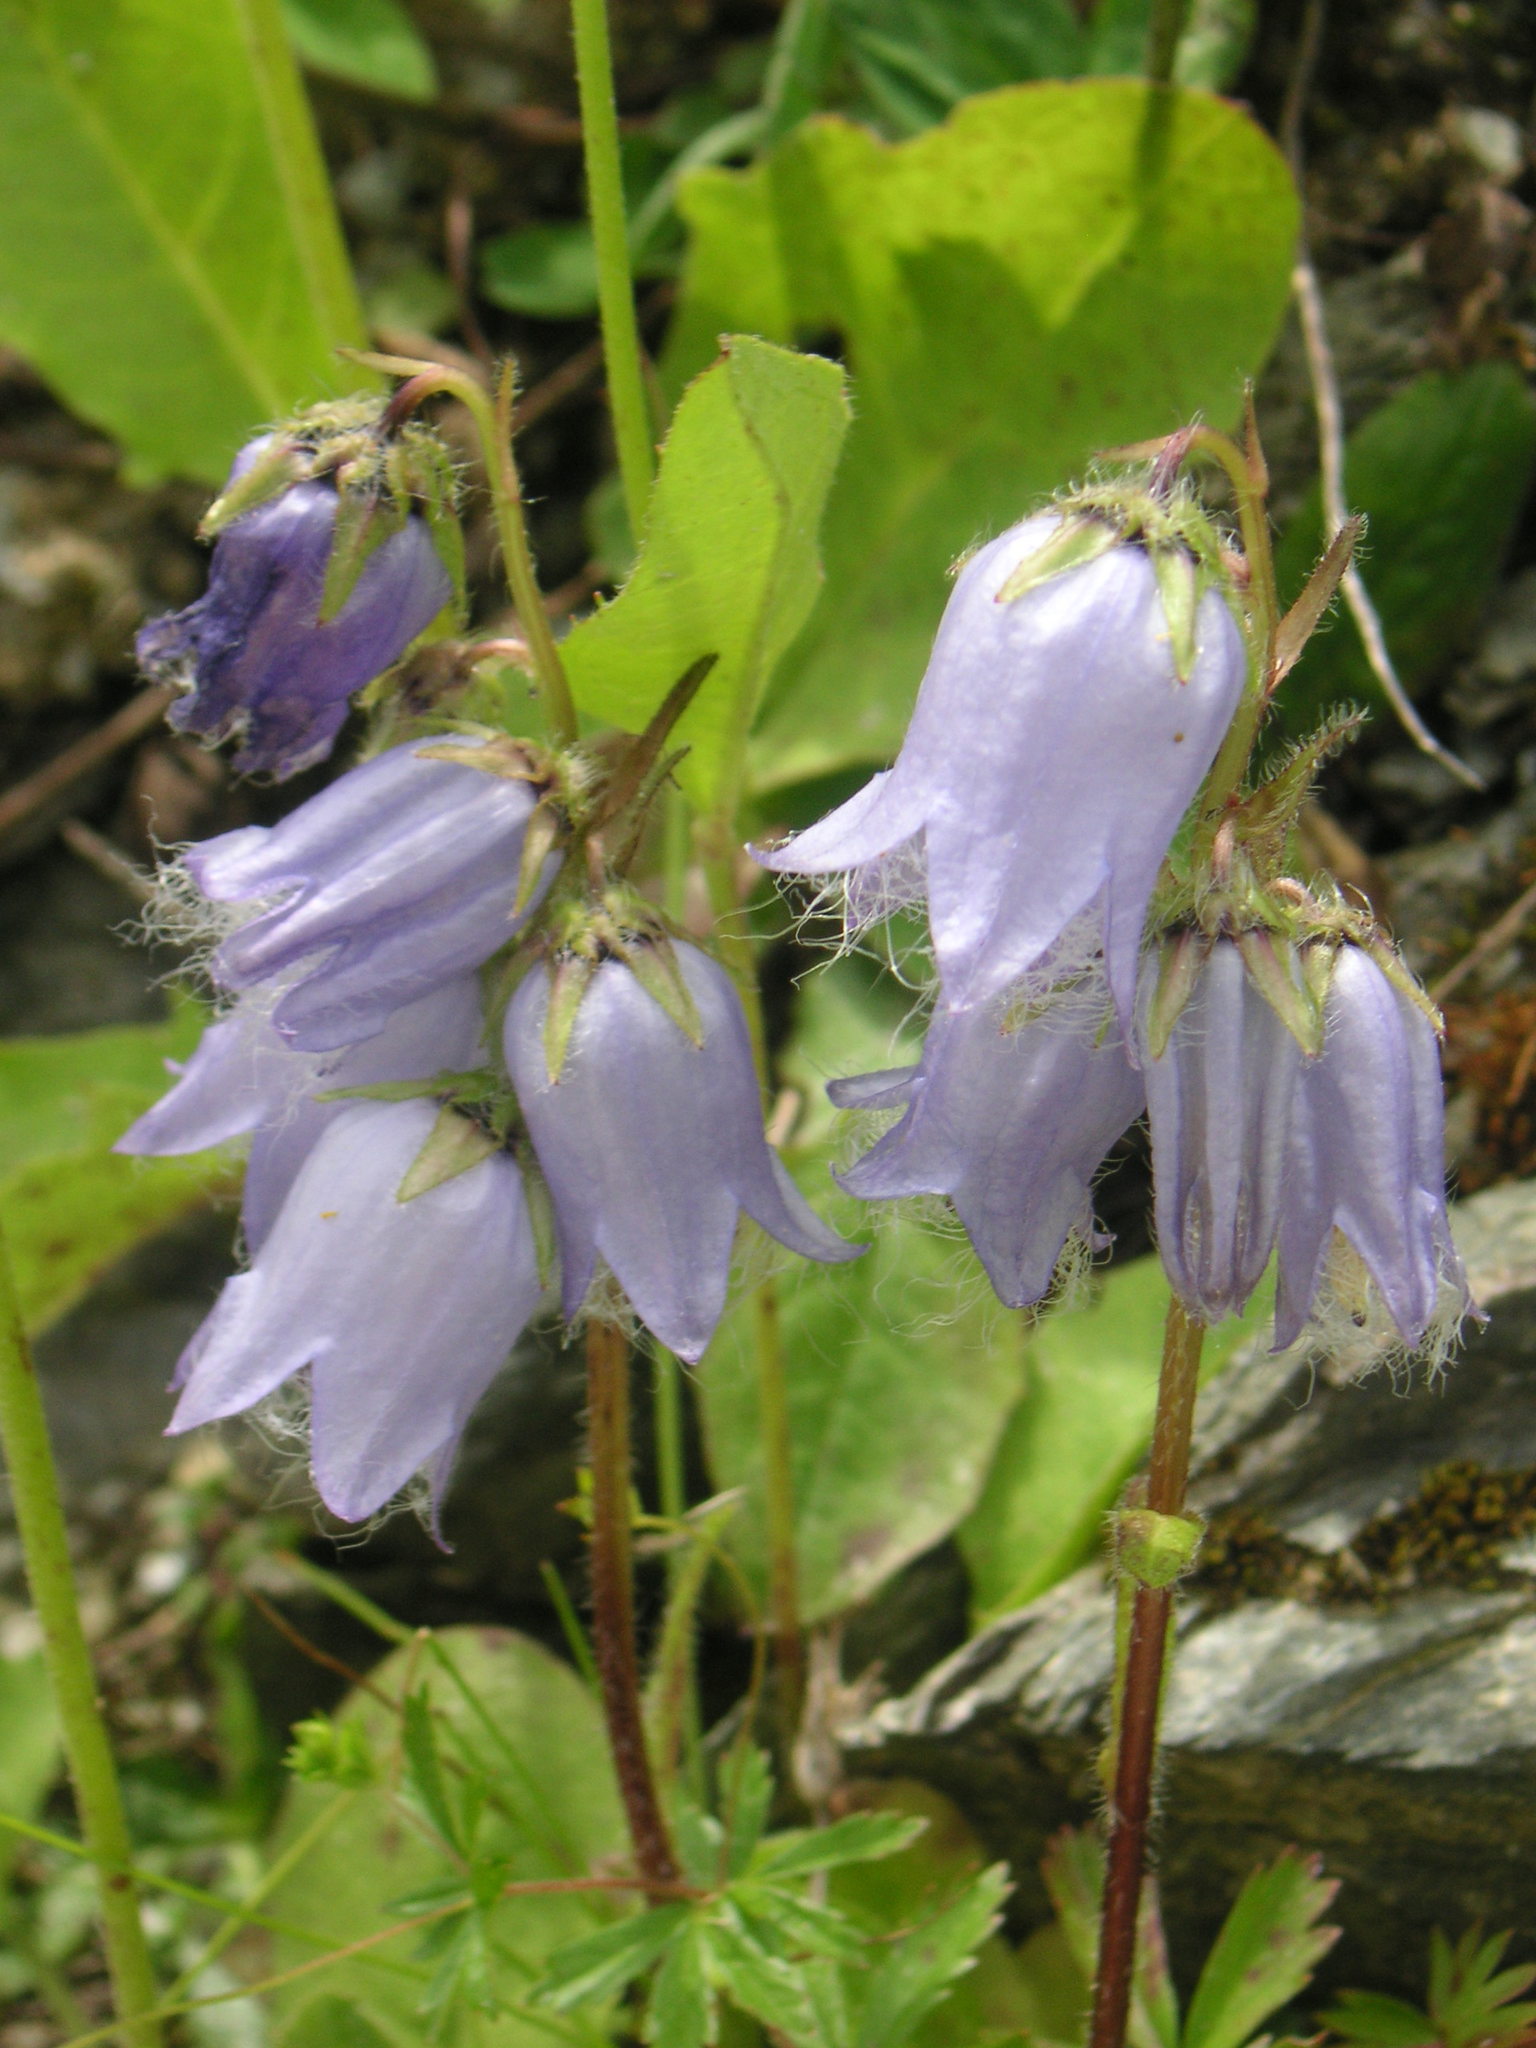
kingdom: Plantae
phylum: Tracheophyta
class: Magnoliopsida
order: Asterales
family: Campanulaceae
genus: Campanula
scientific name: Campanula barbata
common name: Bearded bellflower
